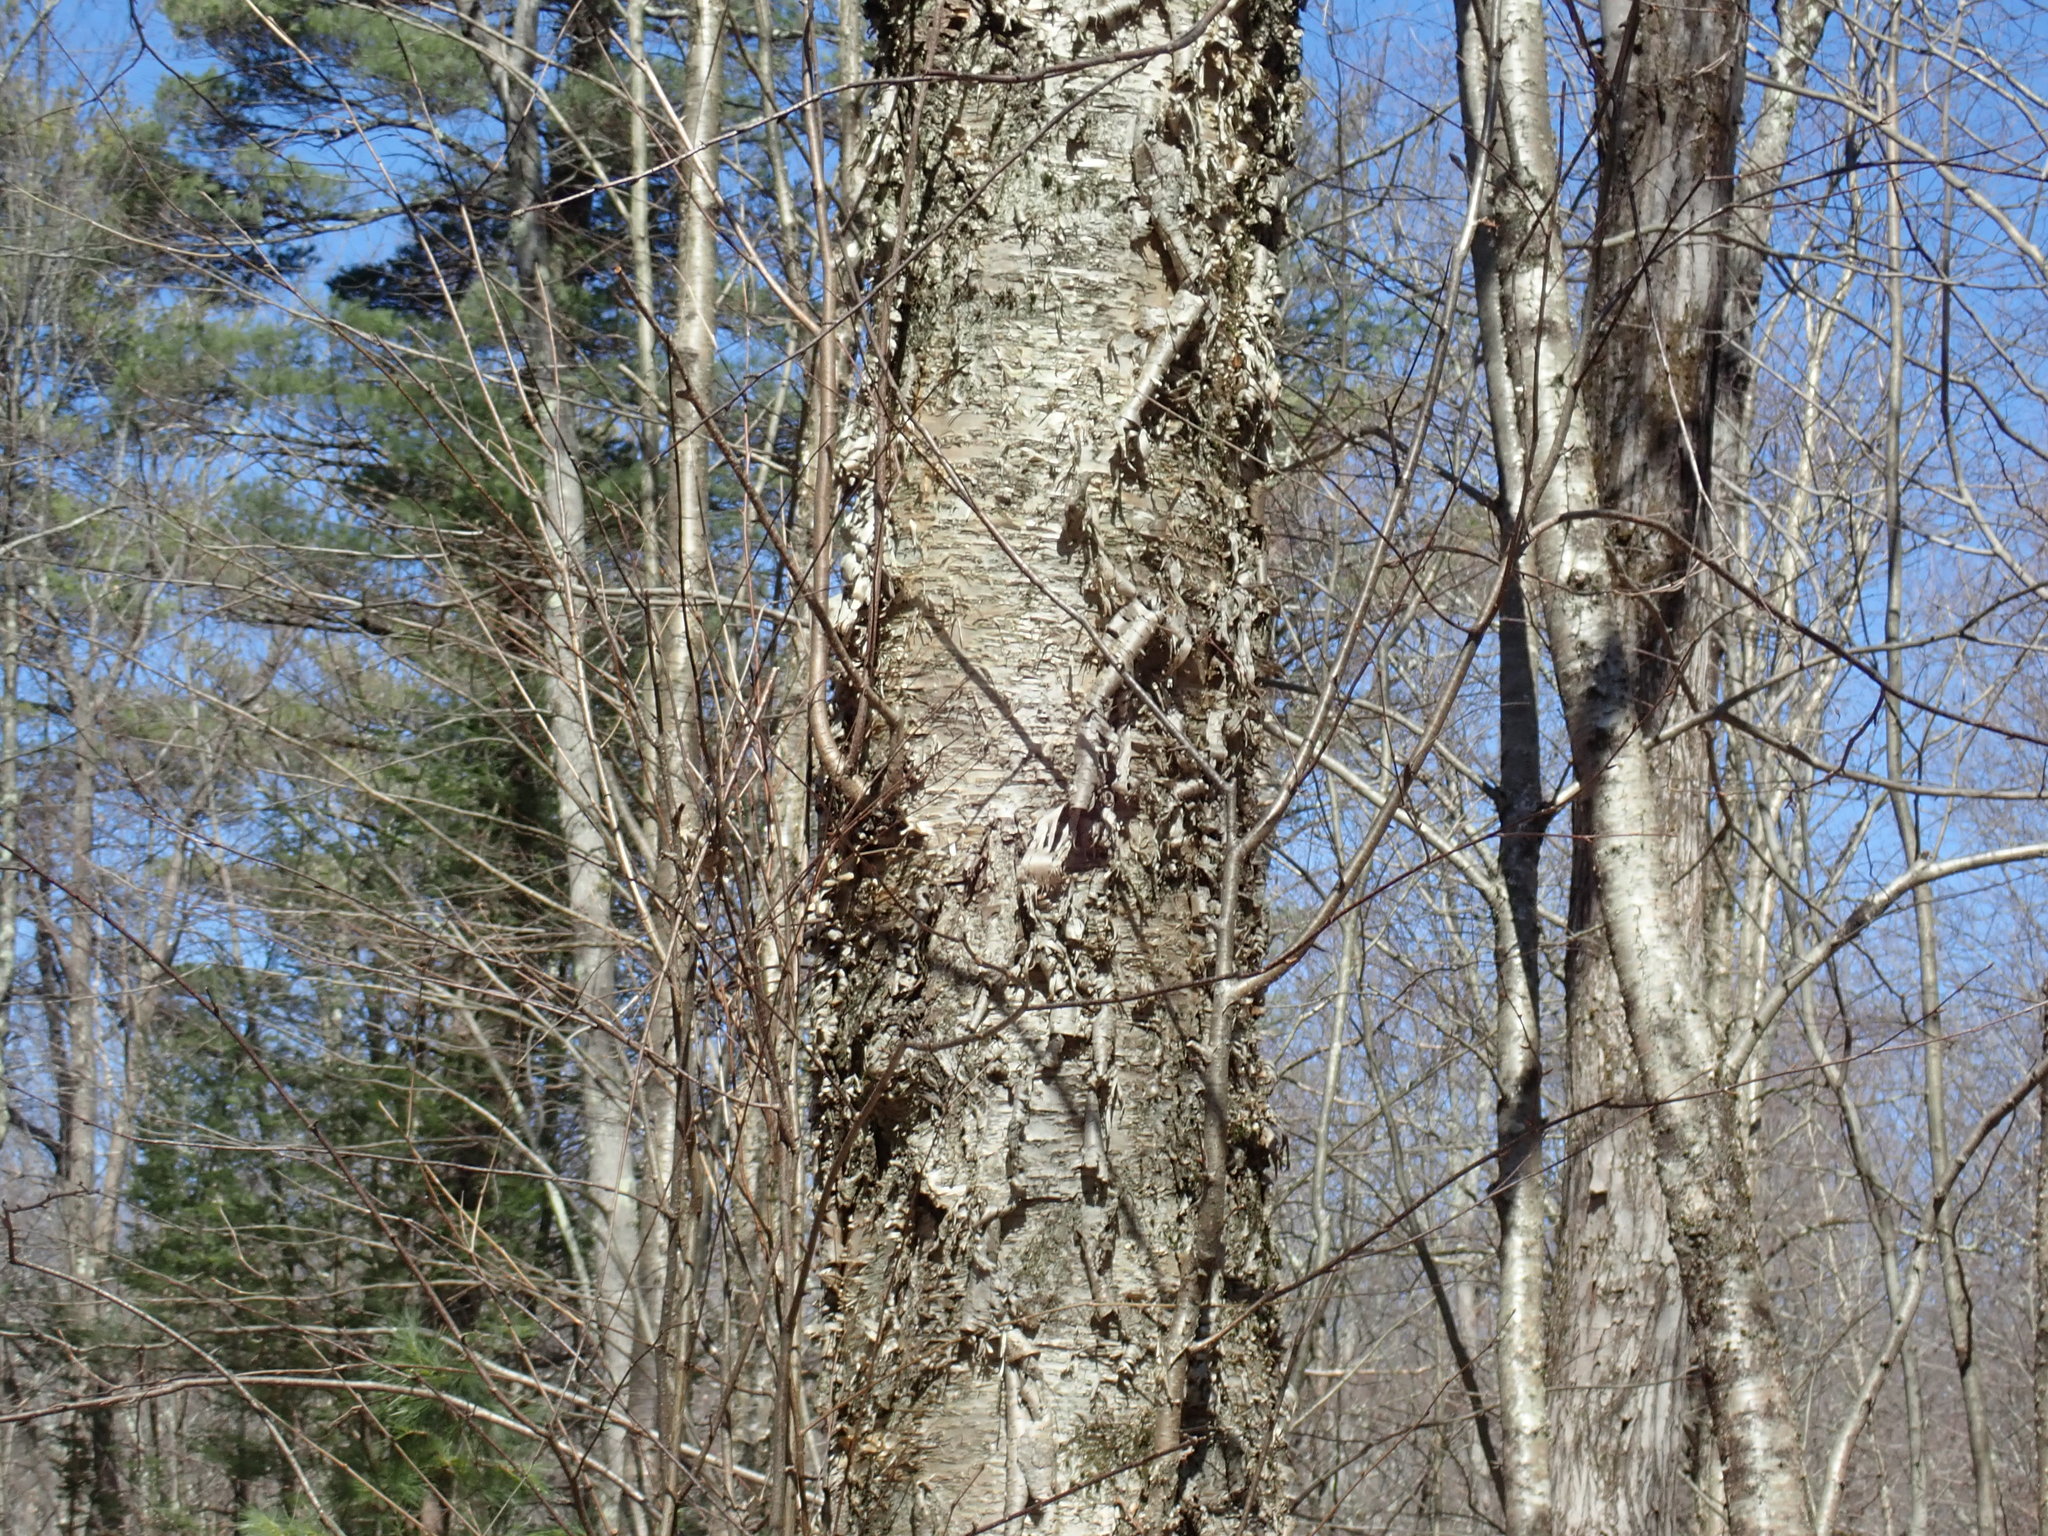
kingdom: Plantae
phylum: Tracheophyta
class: Magnoliopsida
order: Fagales
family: Betulaceae
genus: Betula
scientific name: Betula alleghaniensis
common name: Yellow birch
